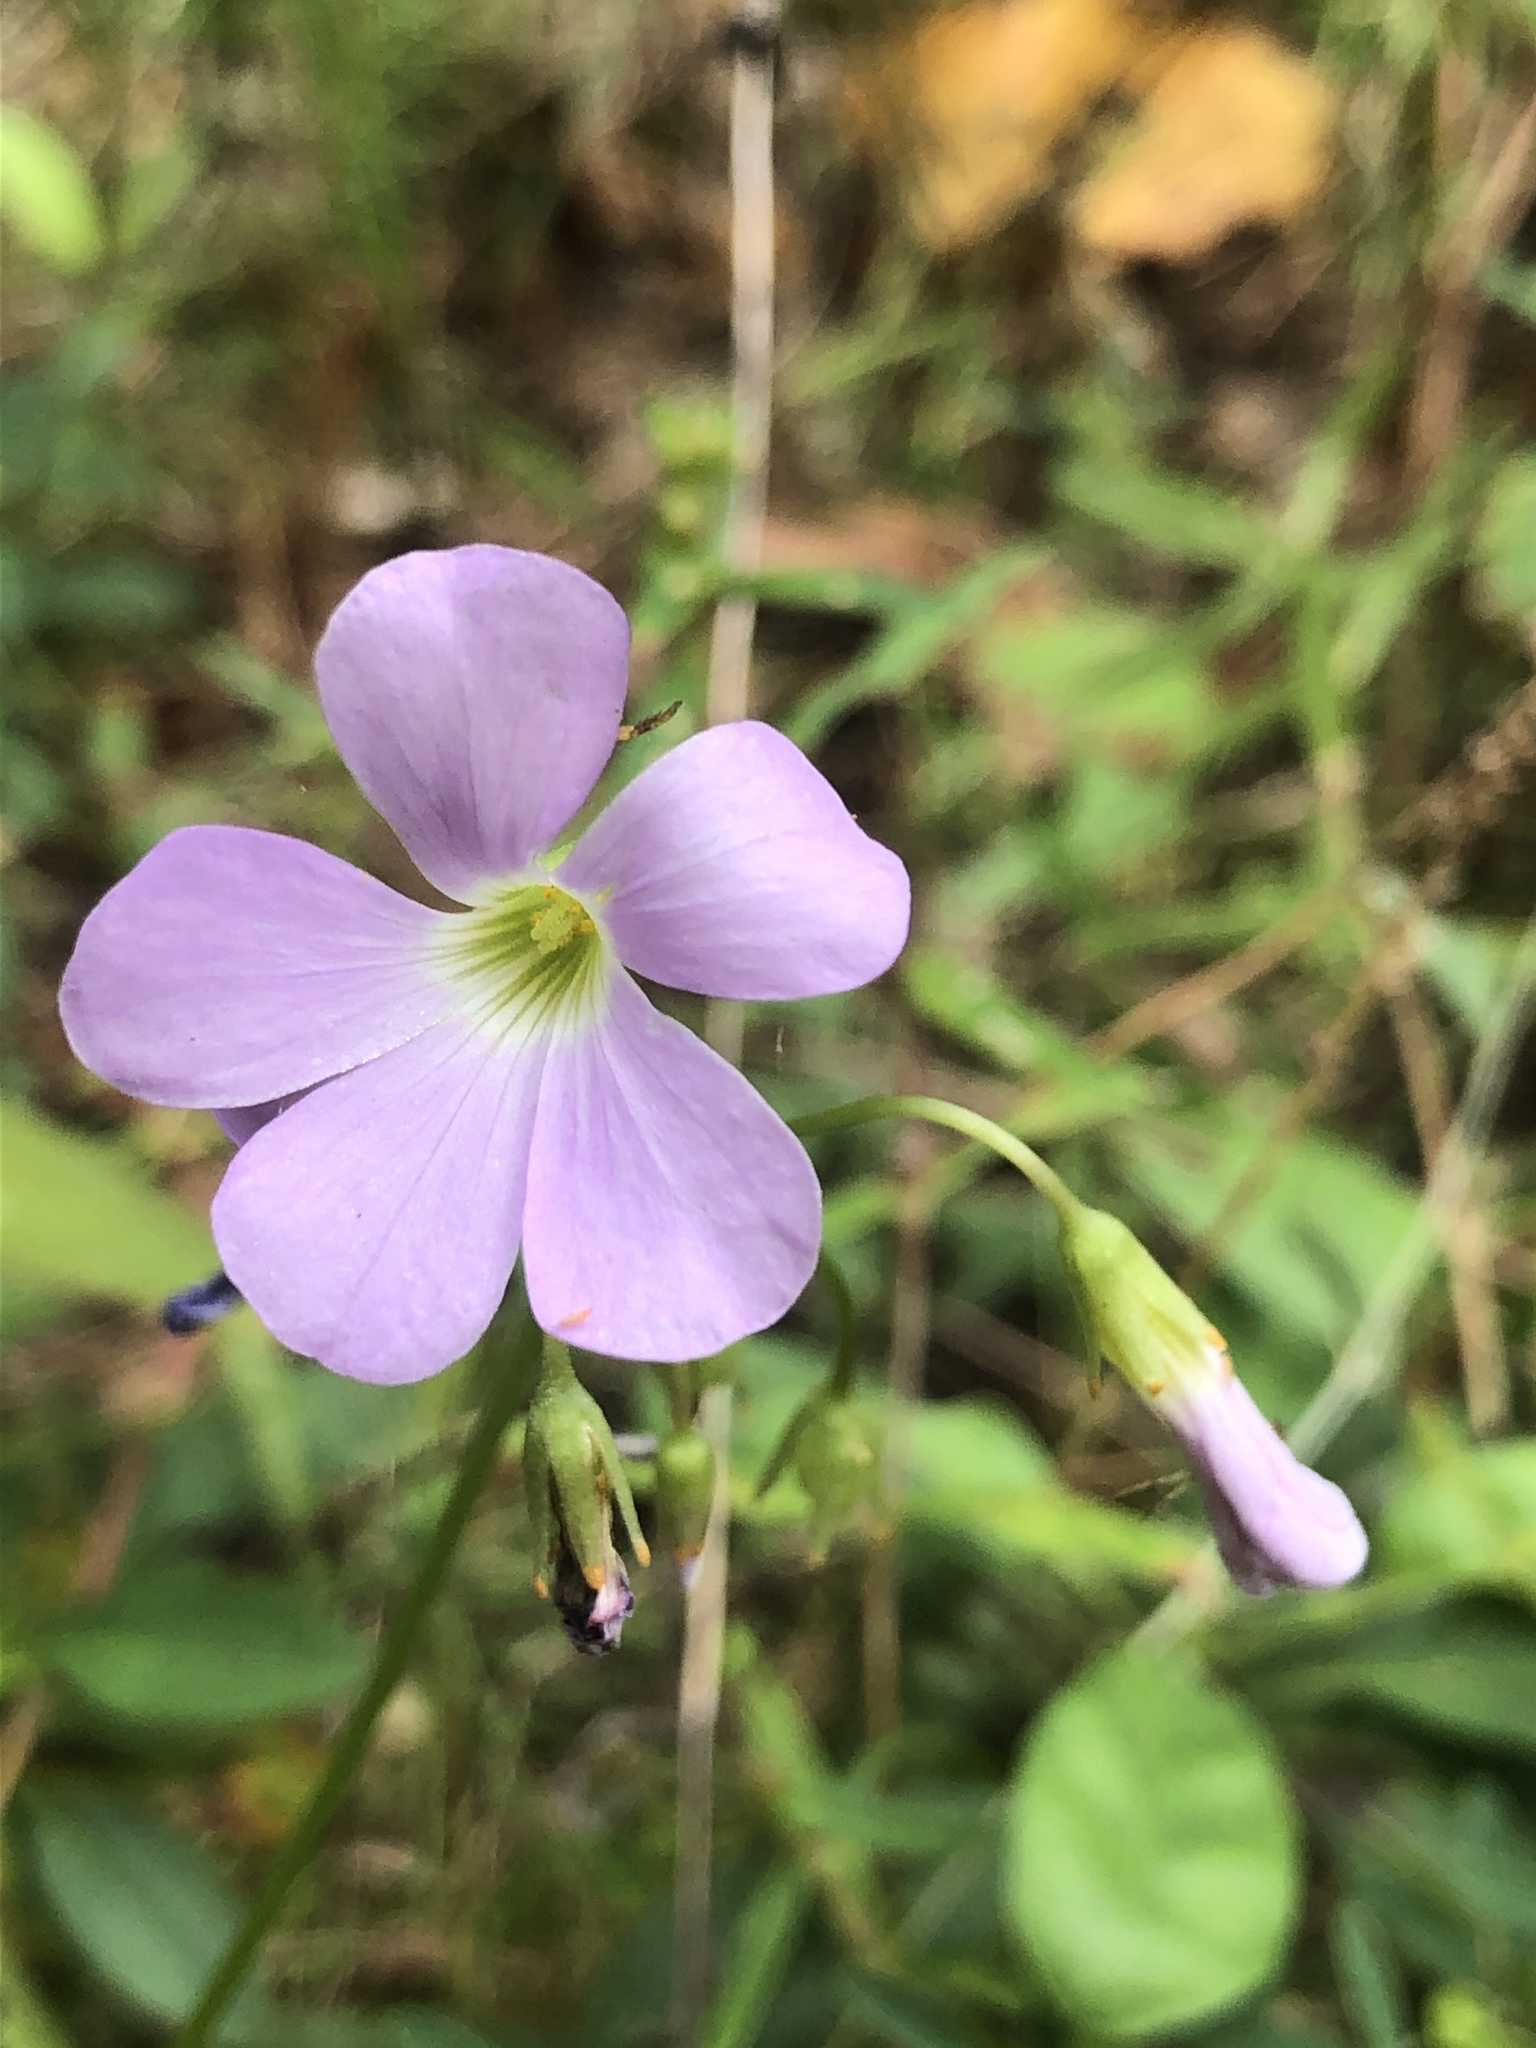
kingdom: Plantae
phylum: Tracheophyta
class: Magnoliopsida
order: Oxalidales
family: Oxalidaceae
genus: Oxalis
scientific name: Oxalis violacea
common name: Violet wood-sorrel
